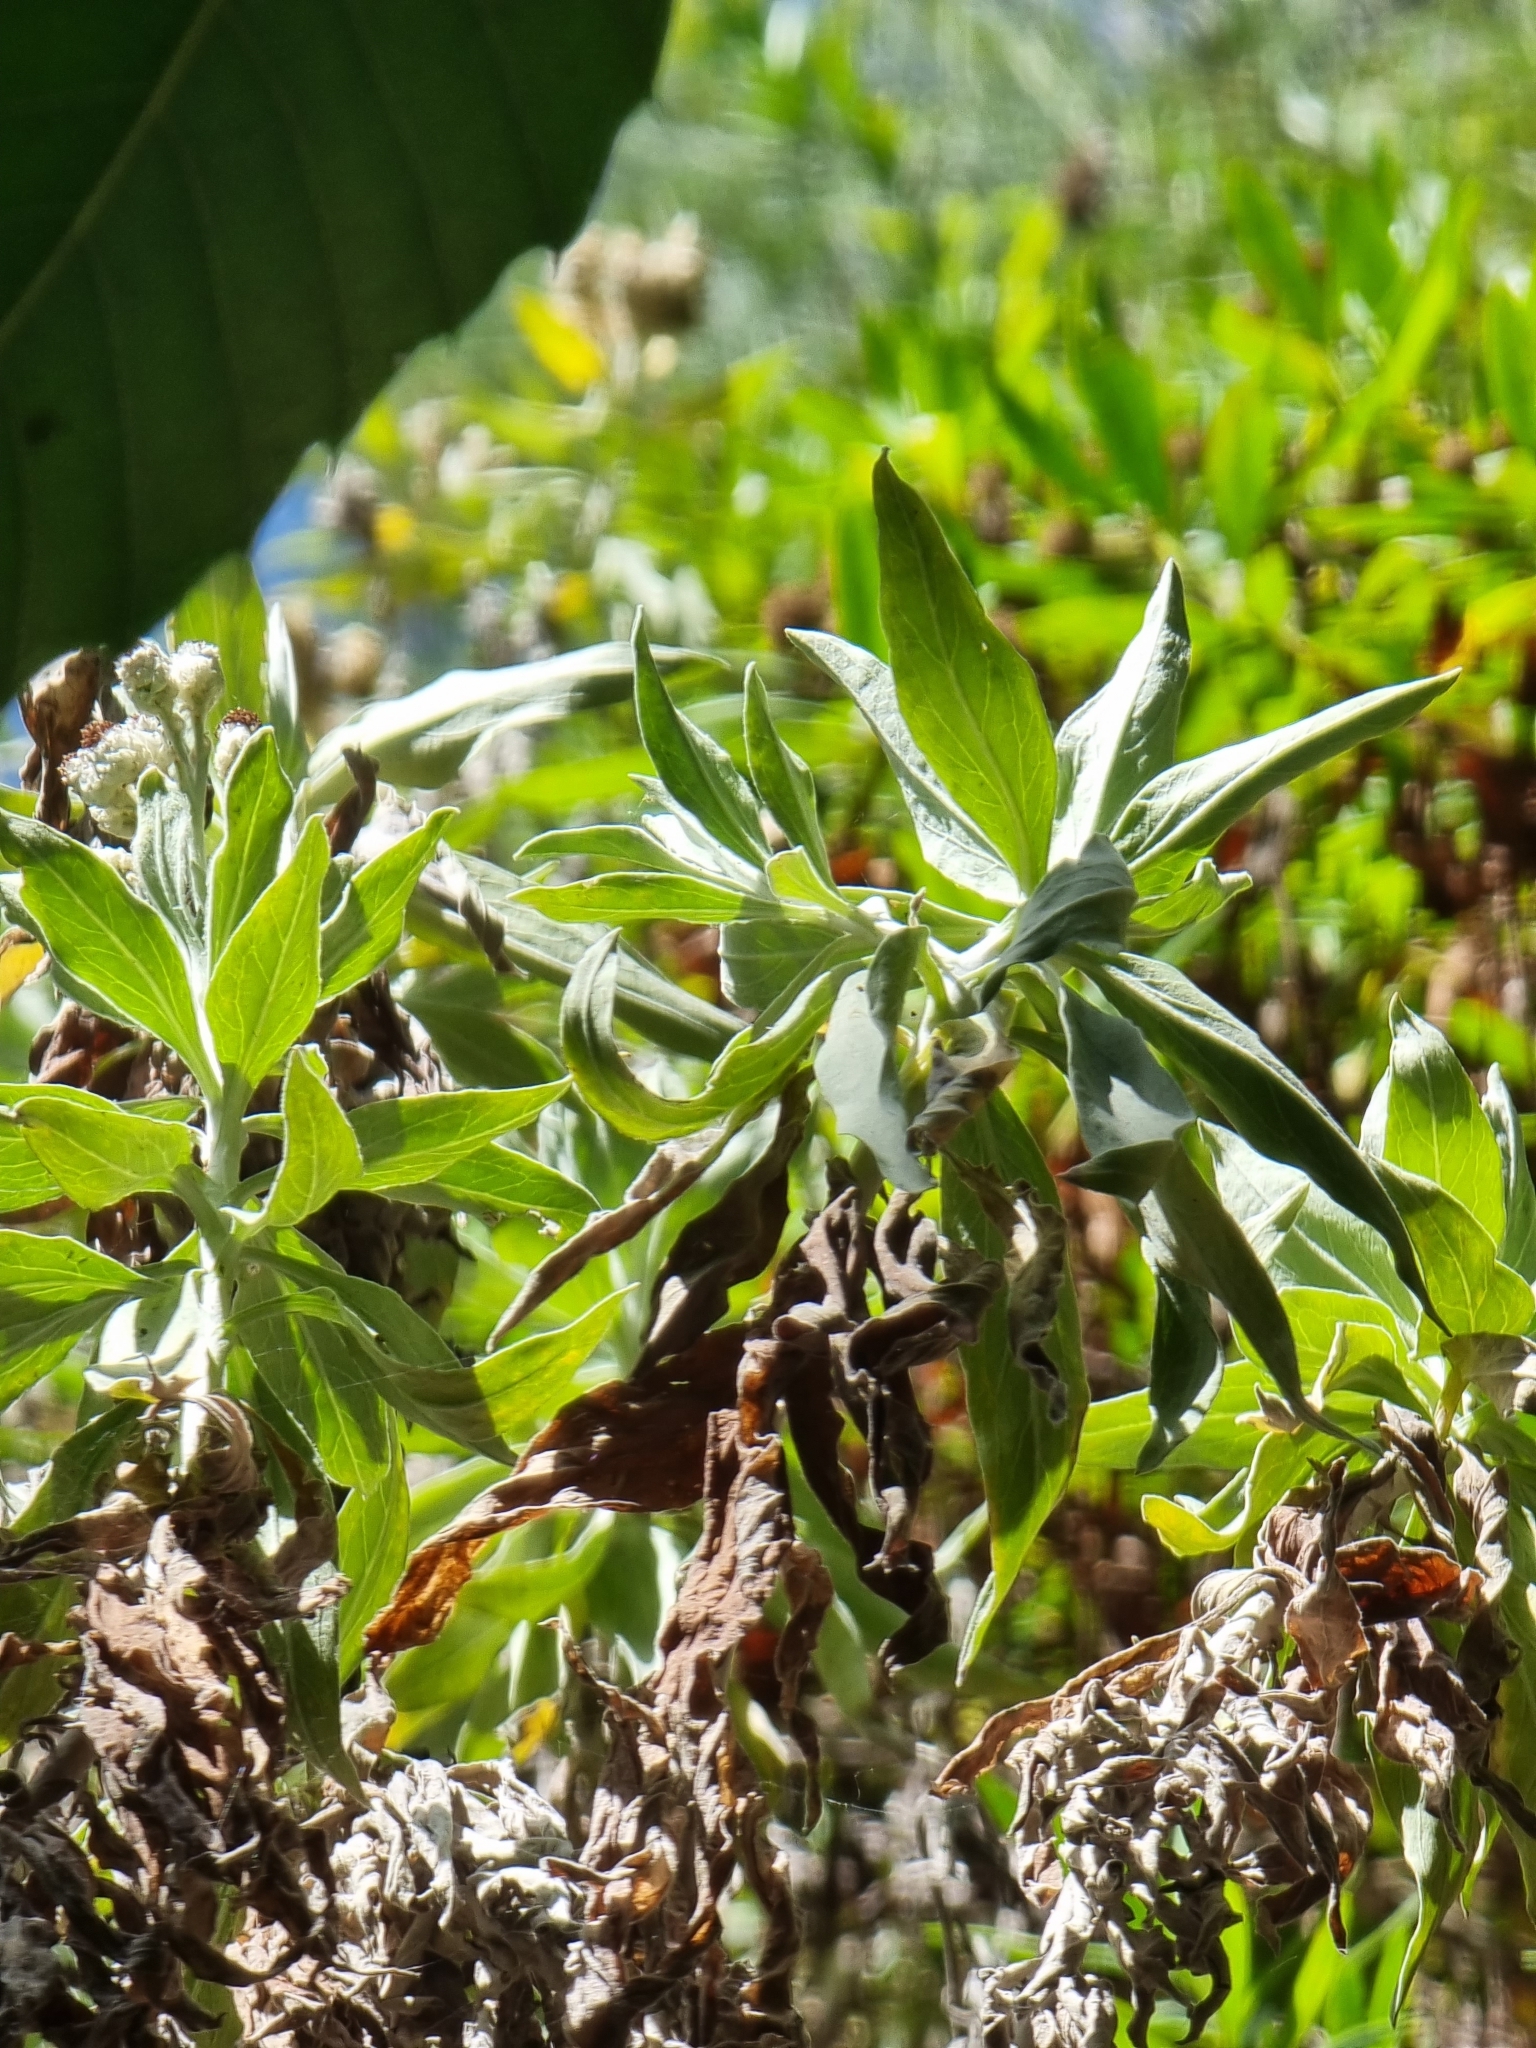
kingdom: Plantae
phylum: Tracheophyta
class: Magnoliopsida
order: Asterales
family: Asteraceae
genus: Helichrysum
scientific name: Helichrysum melaleucum
